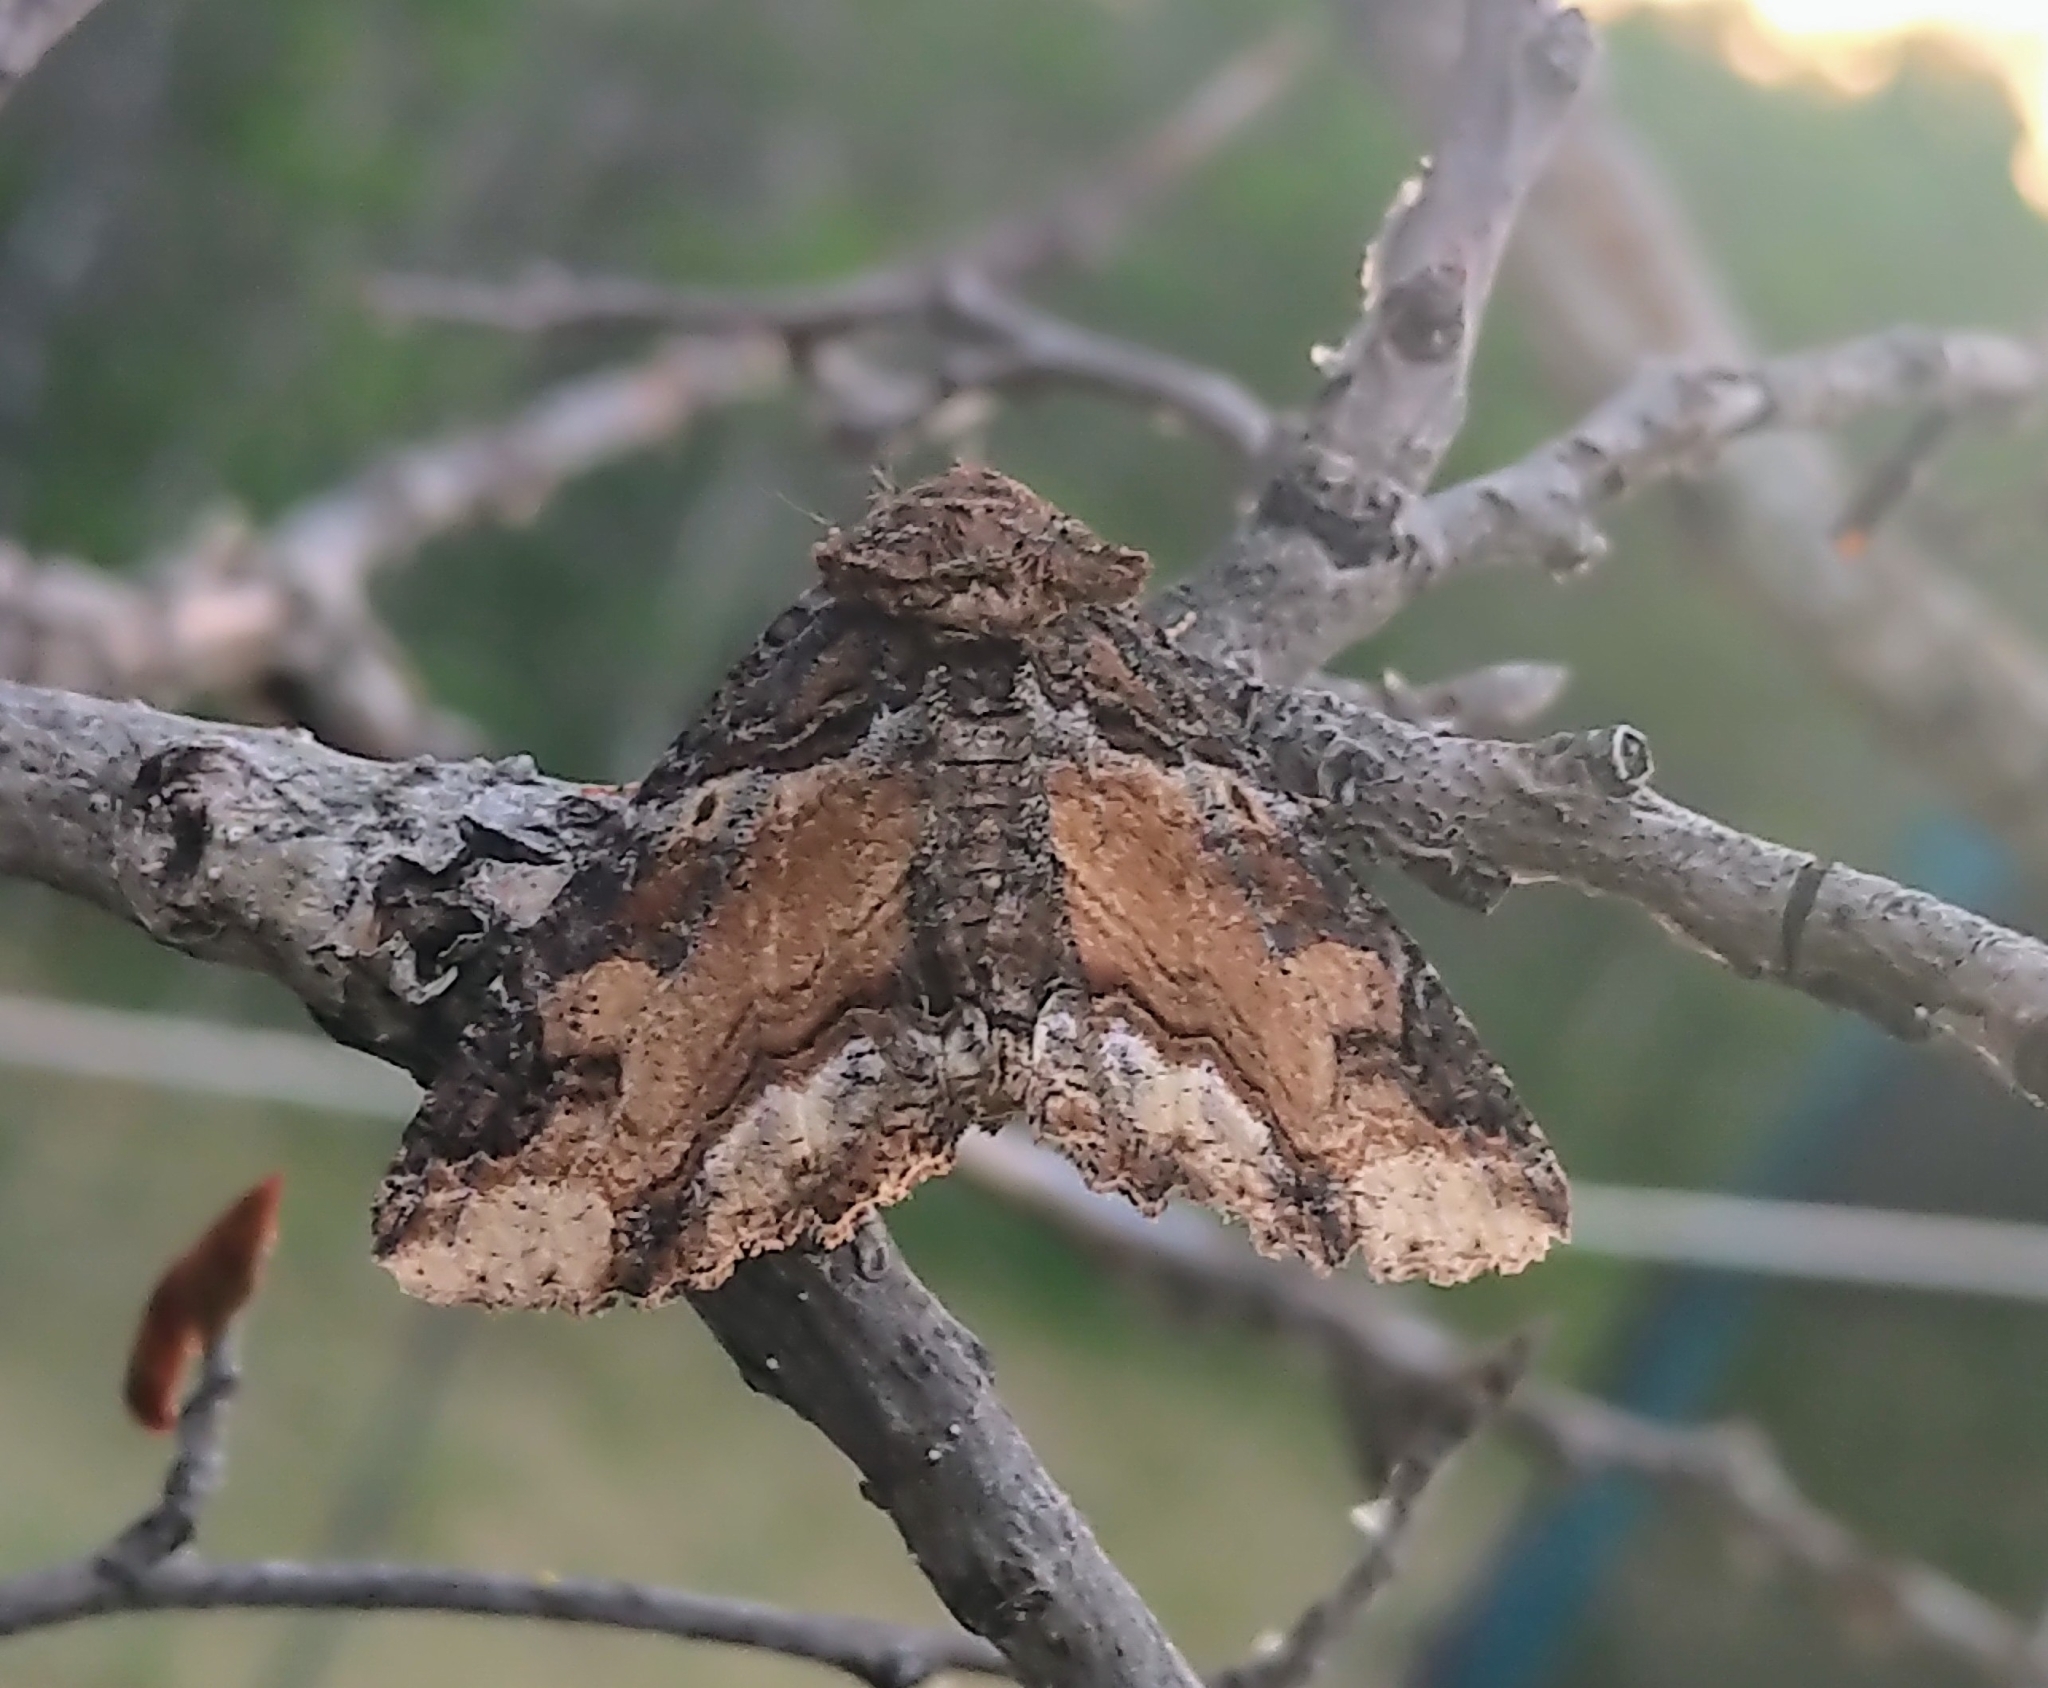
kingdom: Animalia
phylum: Arthropoda
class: Insecta
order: Lepidoptera
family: Erebidae
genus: Zale
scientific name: Zale minerea
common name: Colorful zale moth
